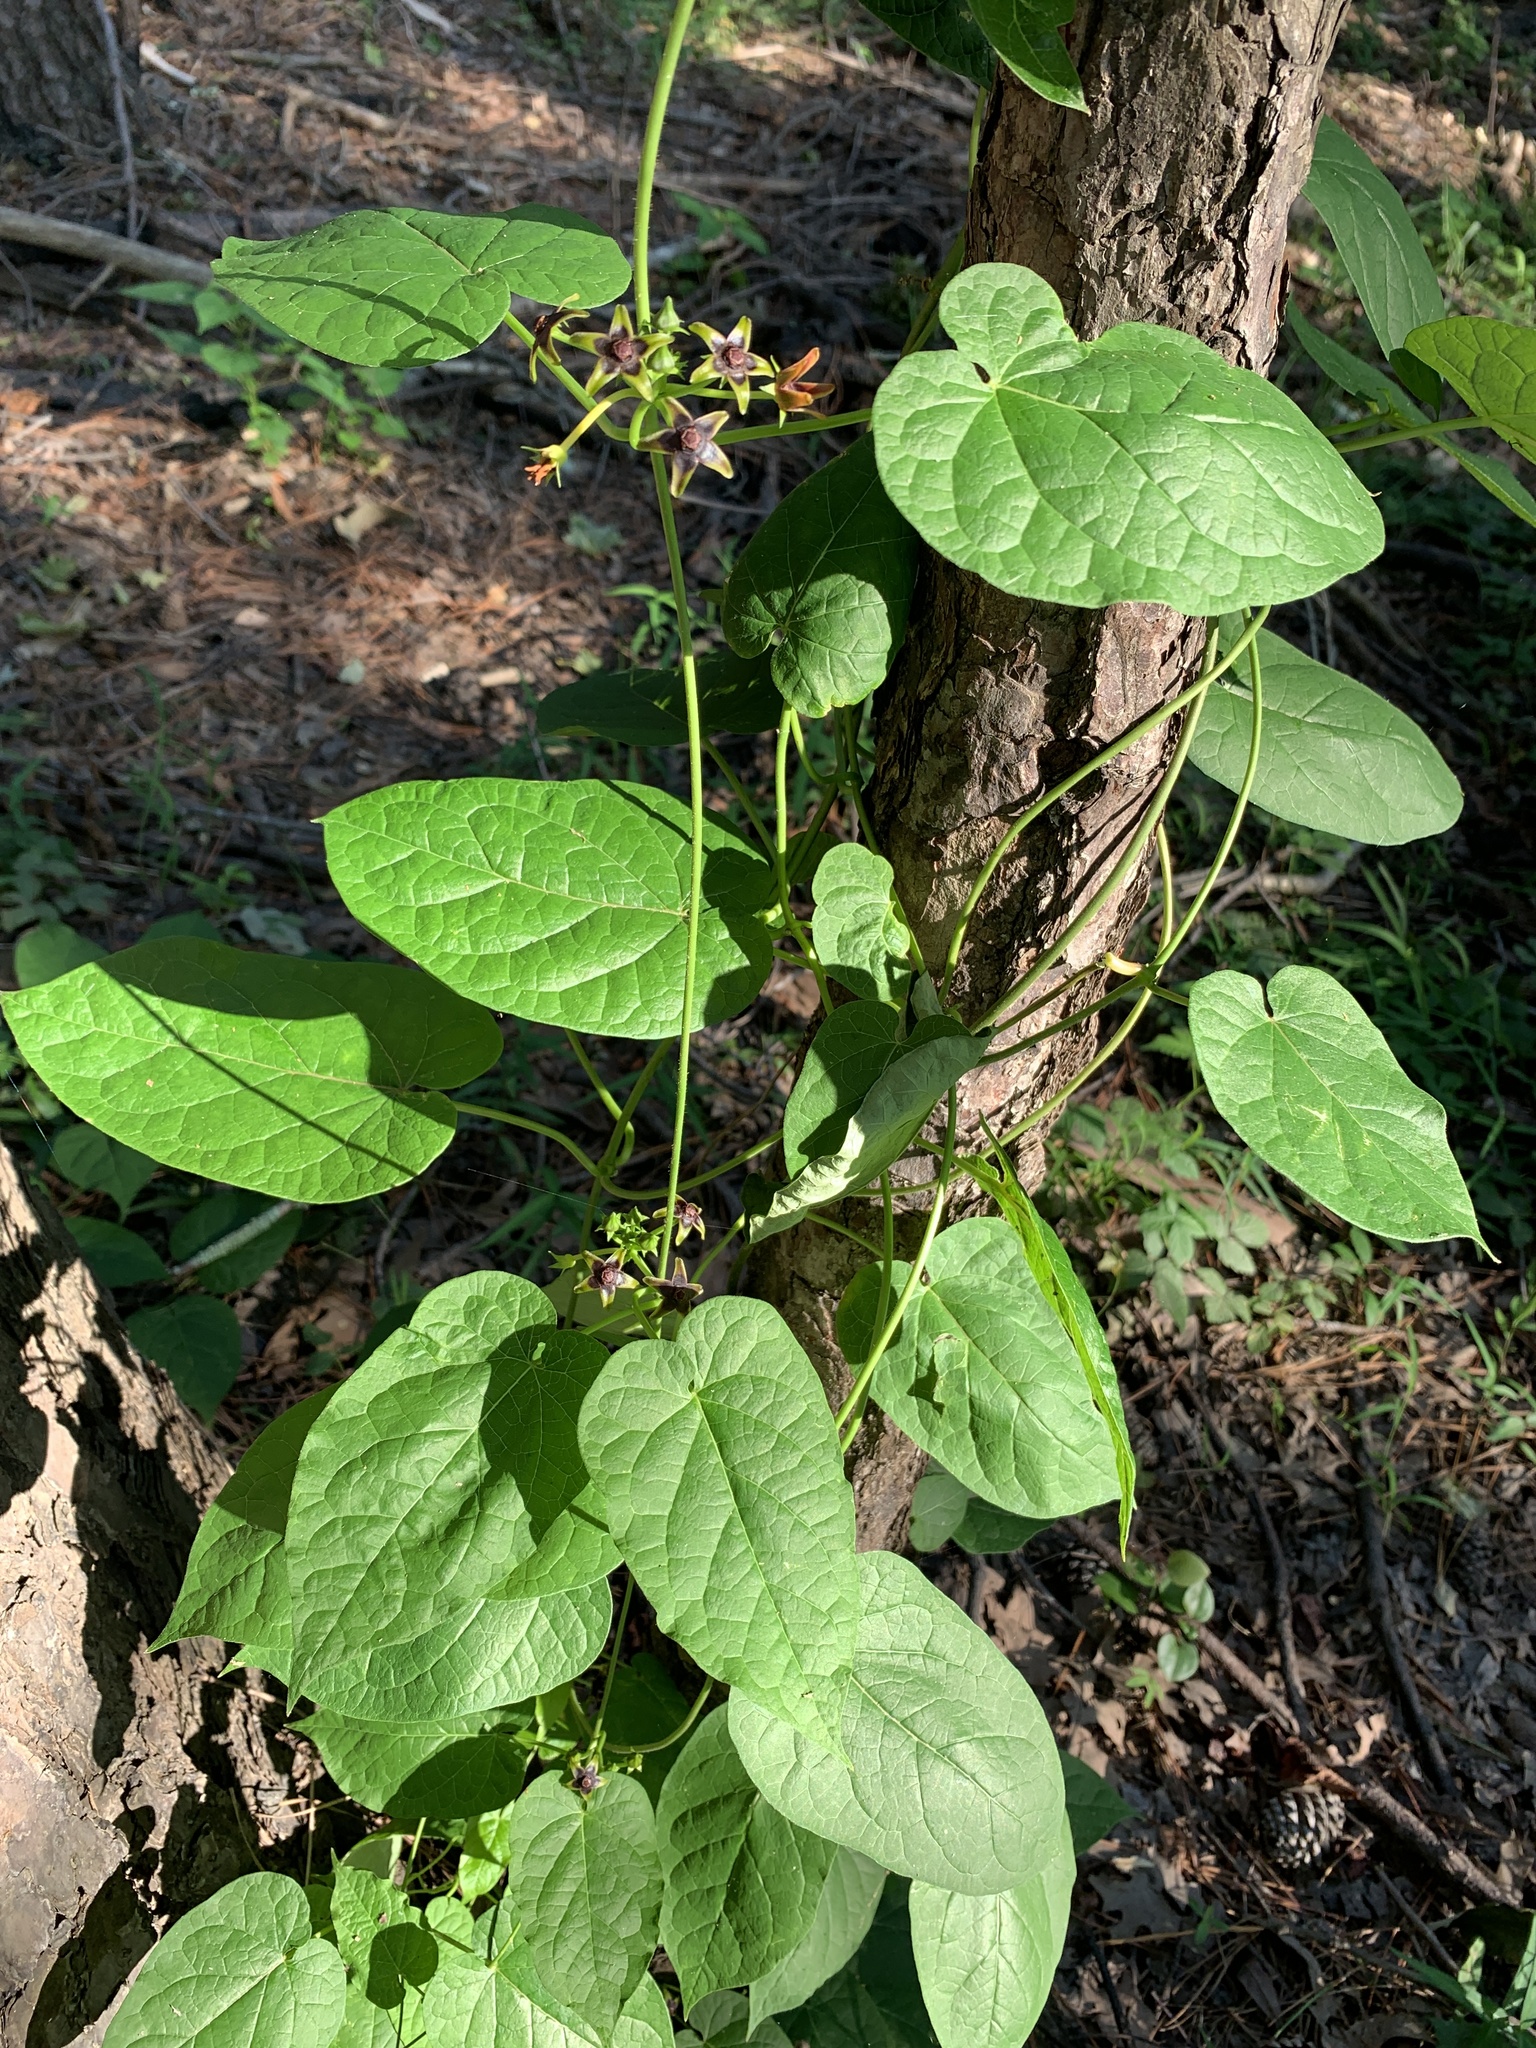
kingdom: Plantae
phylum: Tracheophyta
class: Magnoliopsida
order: Gentianales
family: Apocynaceae
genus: Gonolobus
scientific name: Gonolobus suberosus
